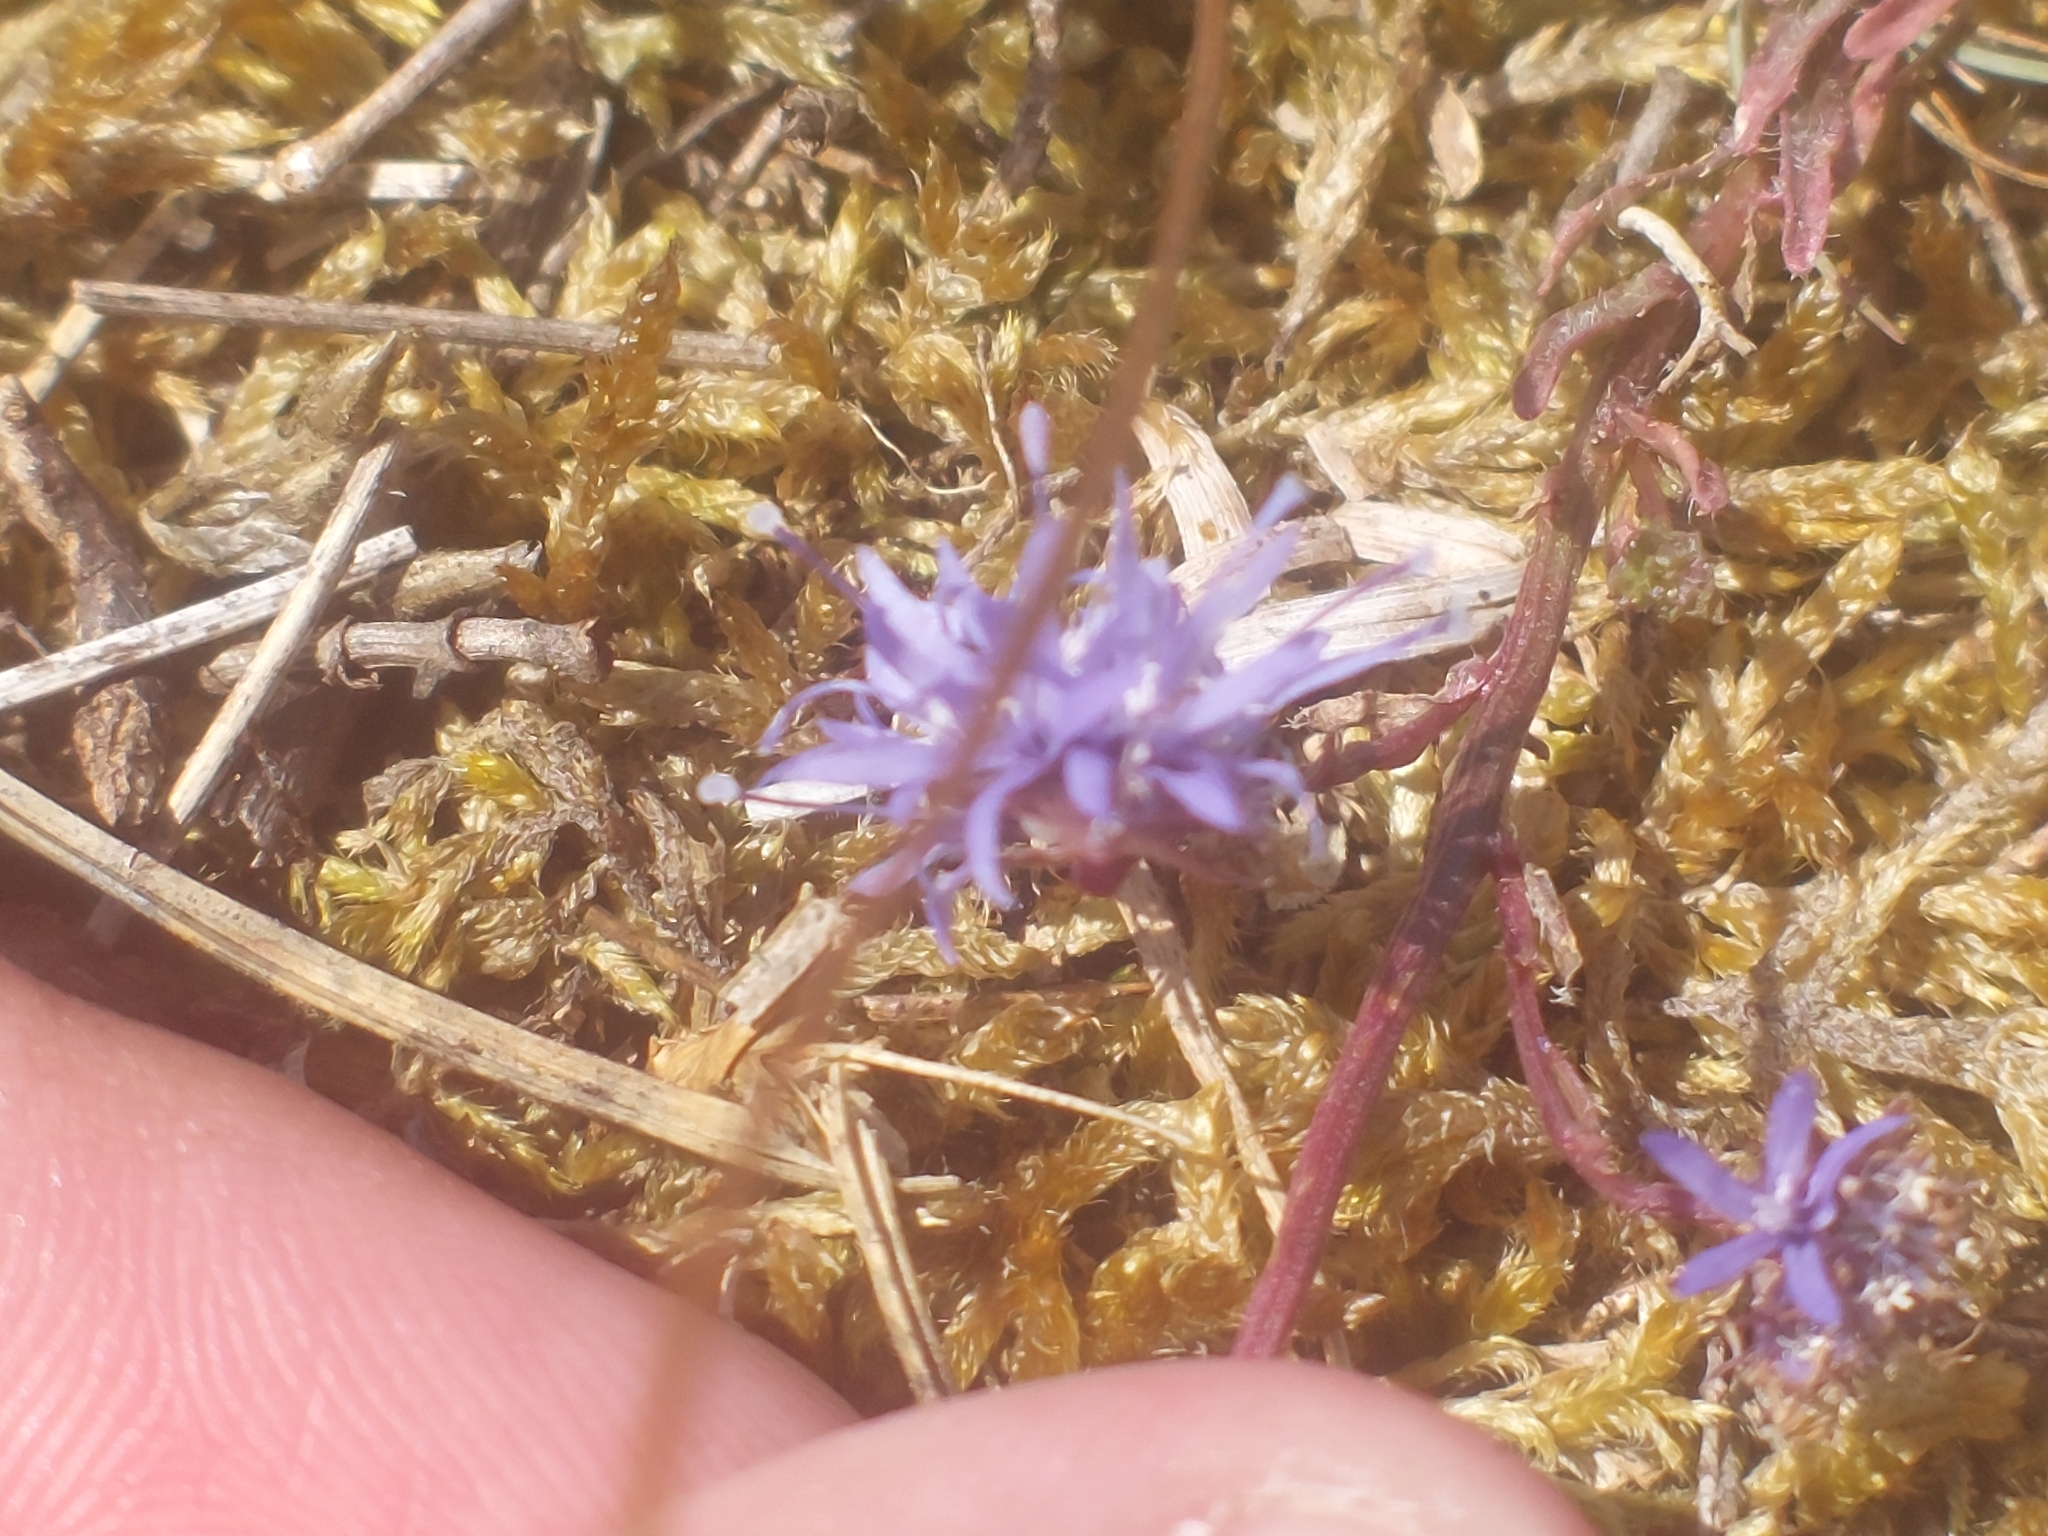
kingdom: Plantae
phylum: Tracheophyta
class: Magnoliopsida
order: Asterales
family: Campanulaceae
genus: Jasione
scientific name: Jasione montana
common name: Sheep's-bit
